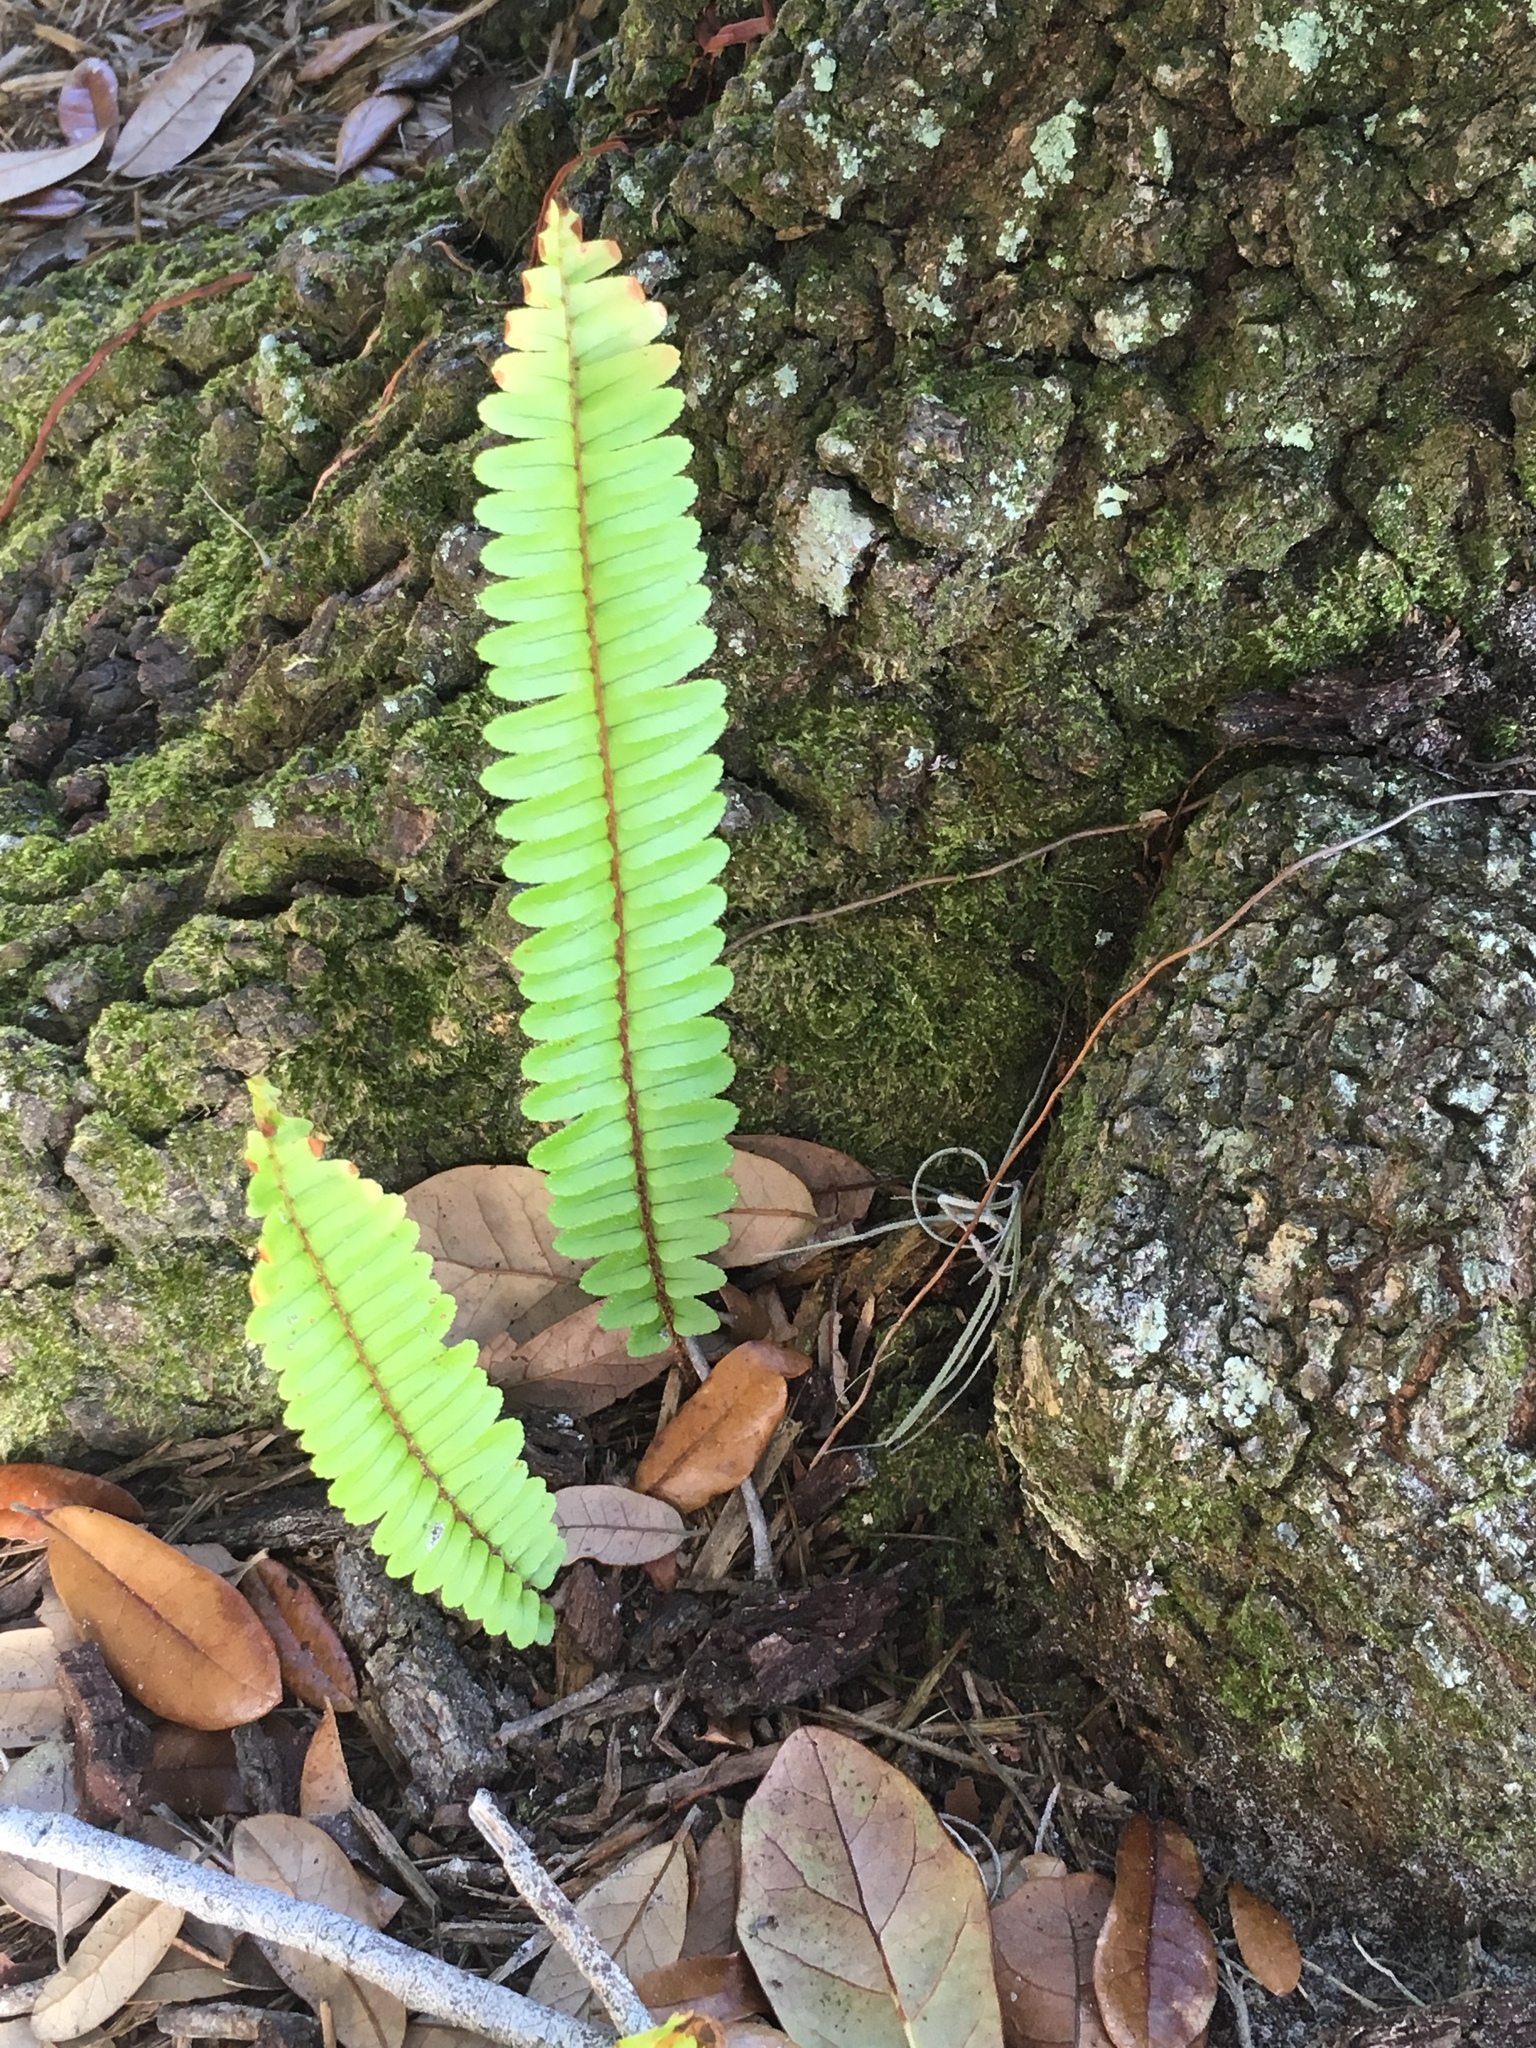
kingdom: Plantae
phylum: Tracheophyta
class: Polypodiopsida
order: Polypodiales
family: Nephrolepidaceae
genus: Nephrolepis
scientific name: Nephrolepis cordifolia
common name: Narrow swordfern
